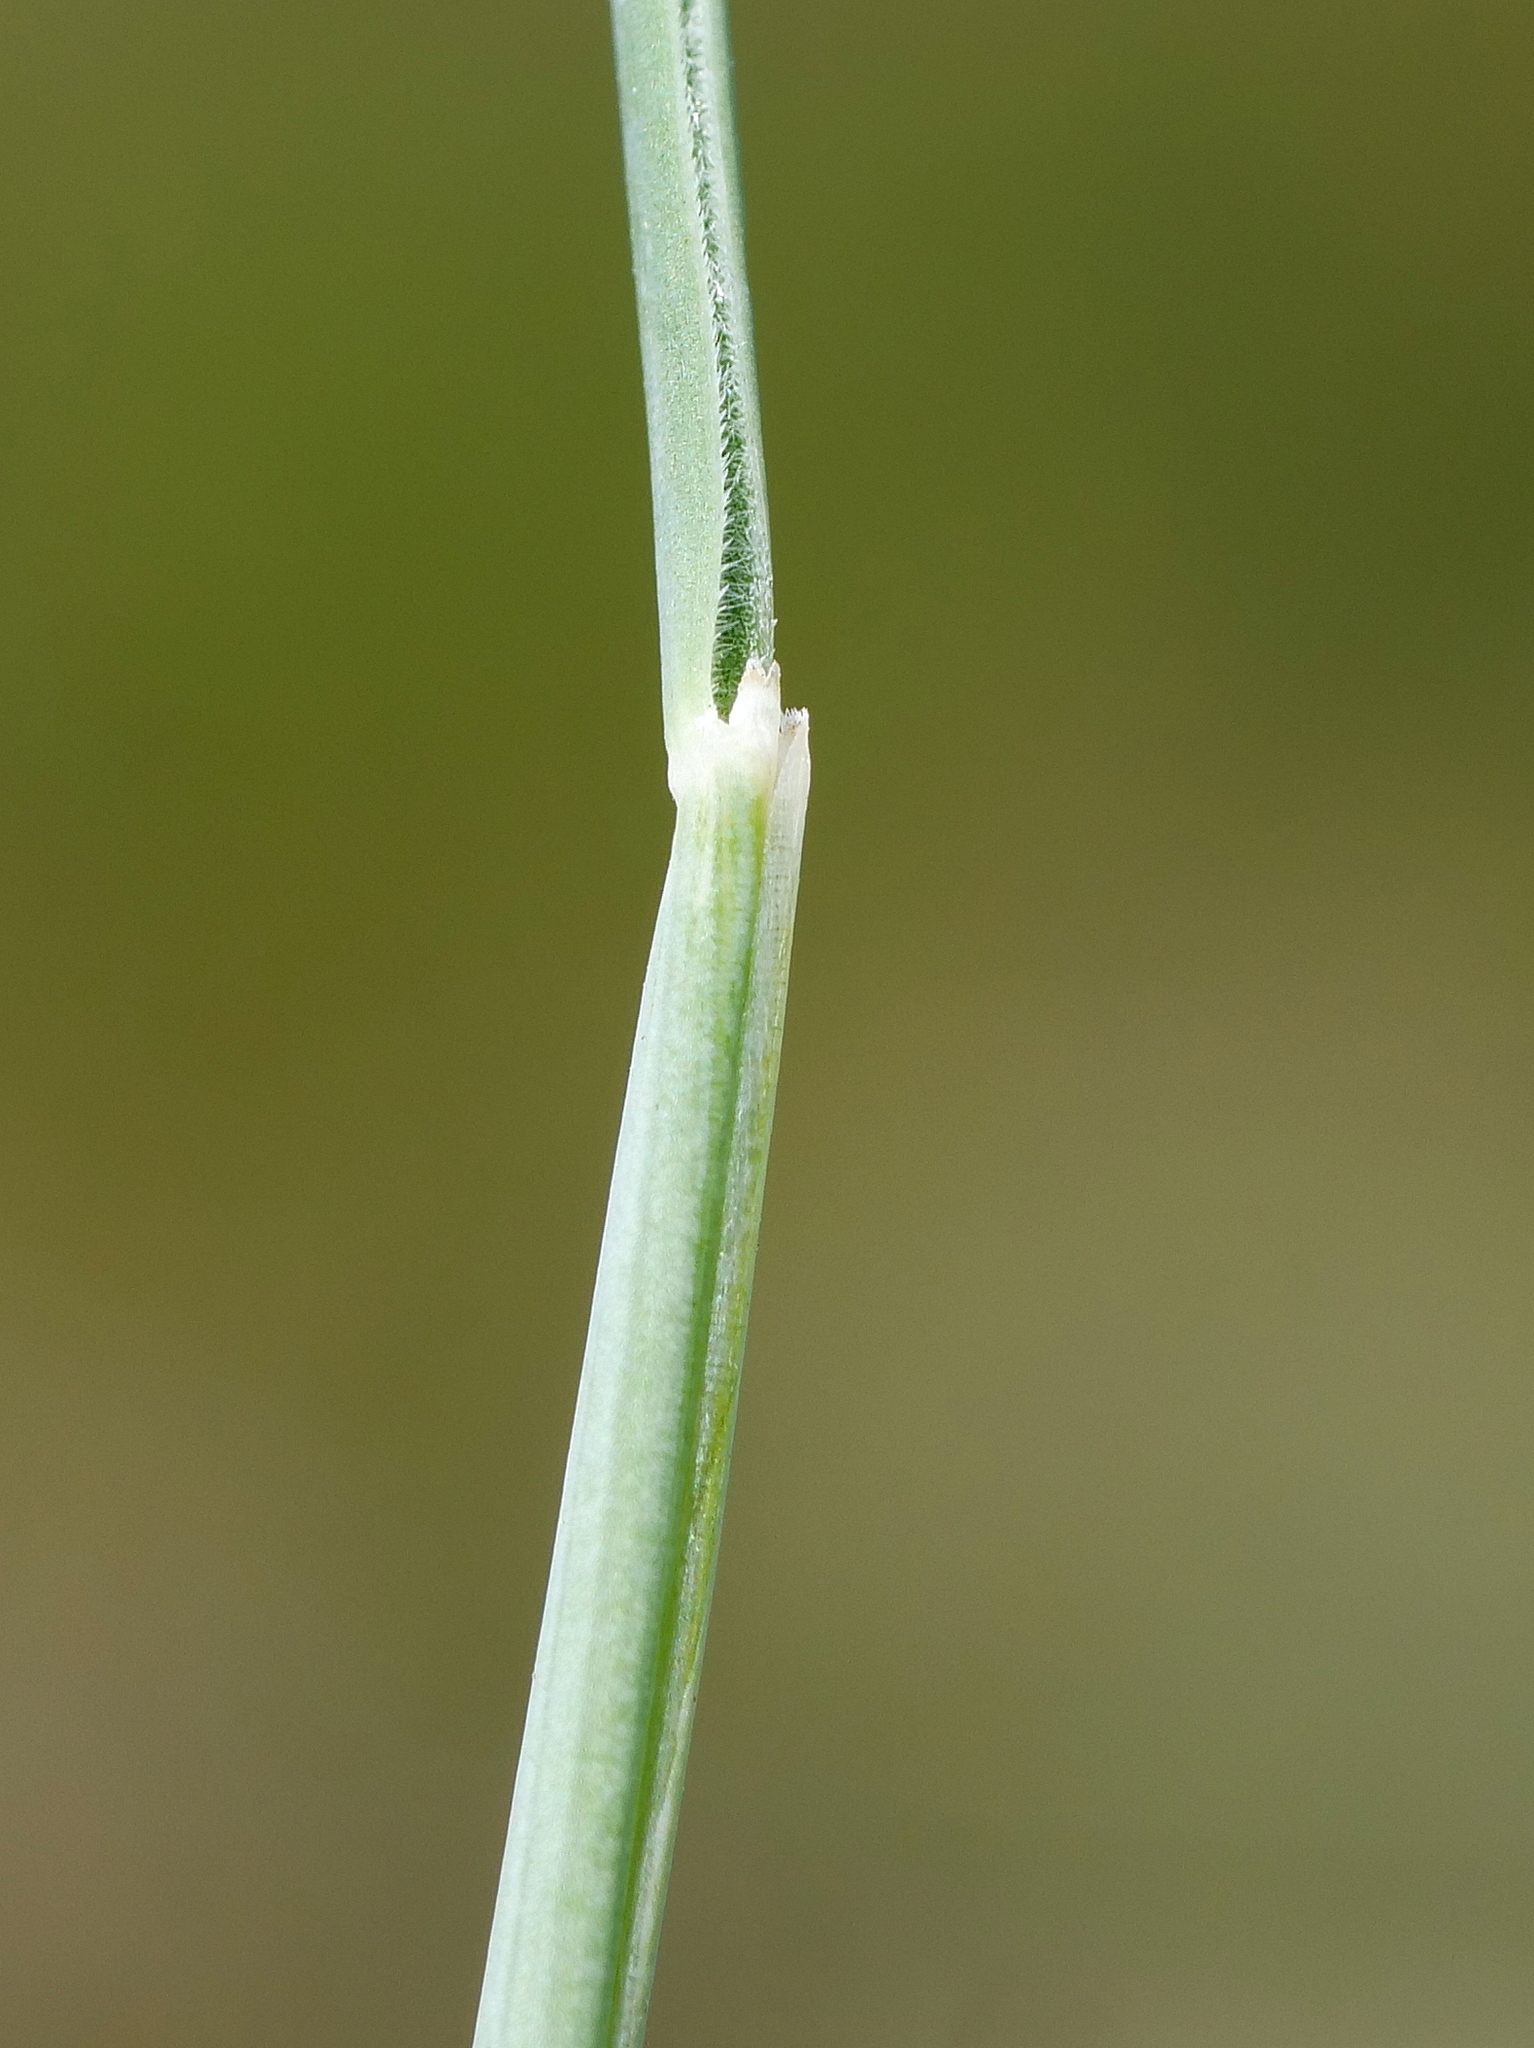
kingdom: Plantae
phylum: Tracheophyta
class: Liliopsida
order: Poales
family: Poaceae
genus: Festuca
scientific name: Festuca pallens
